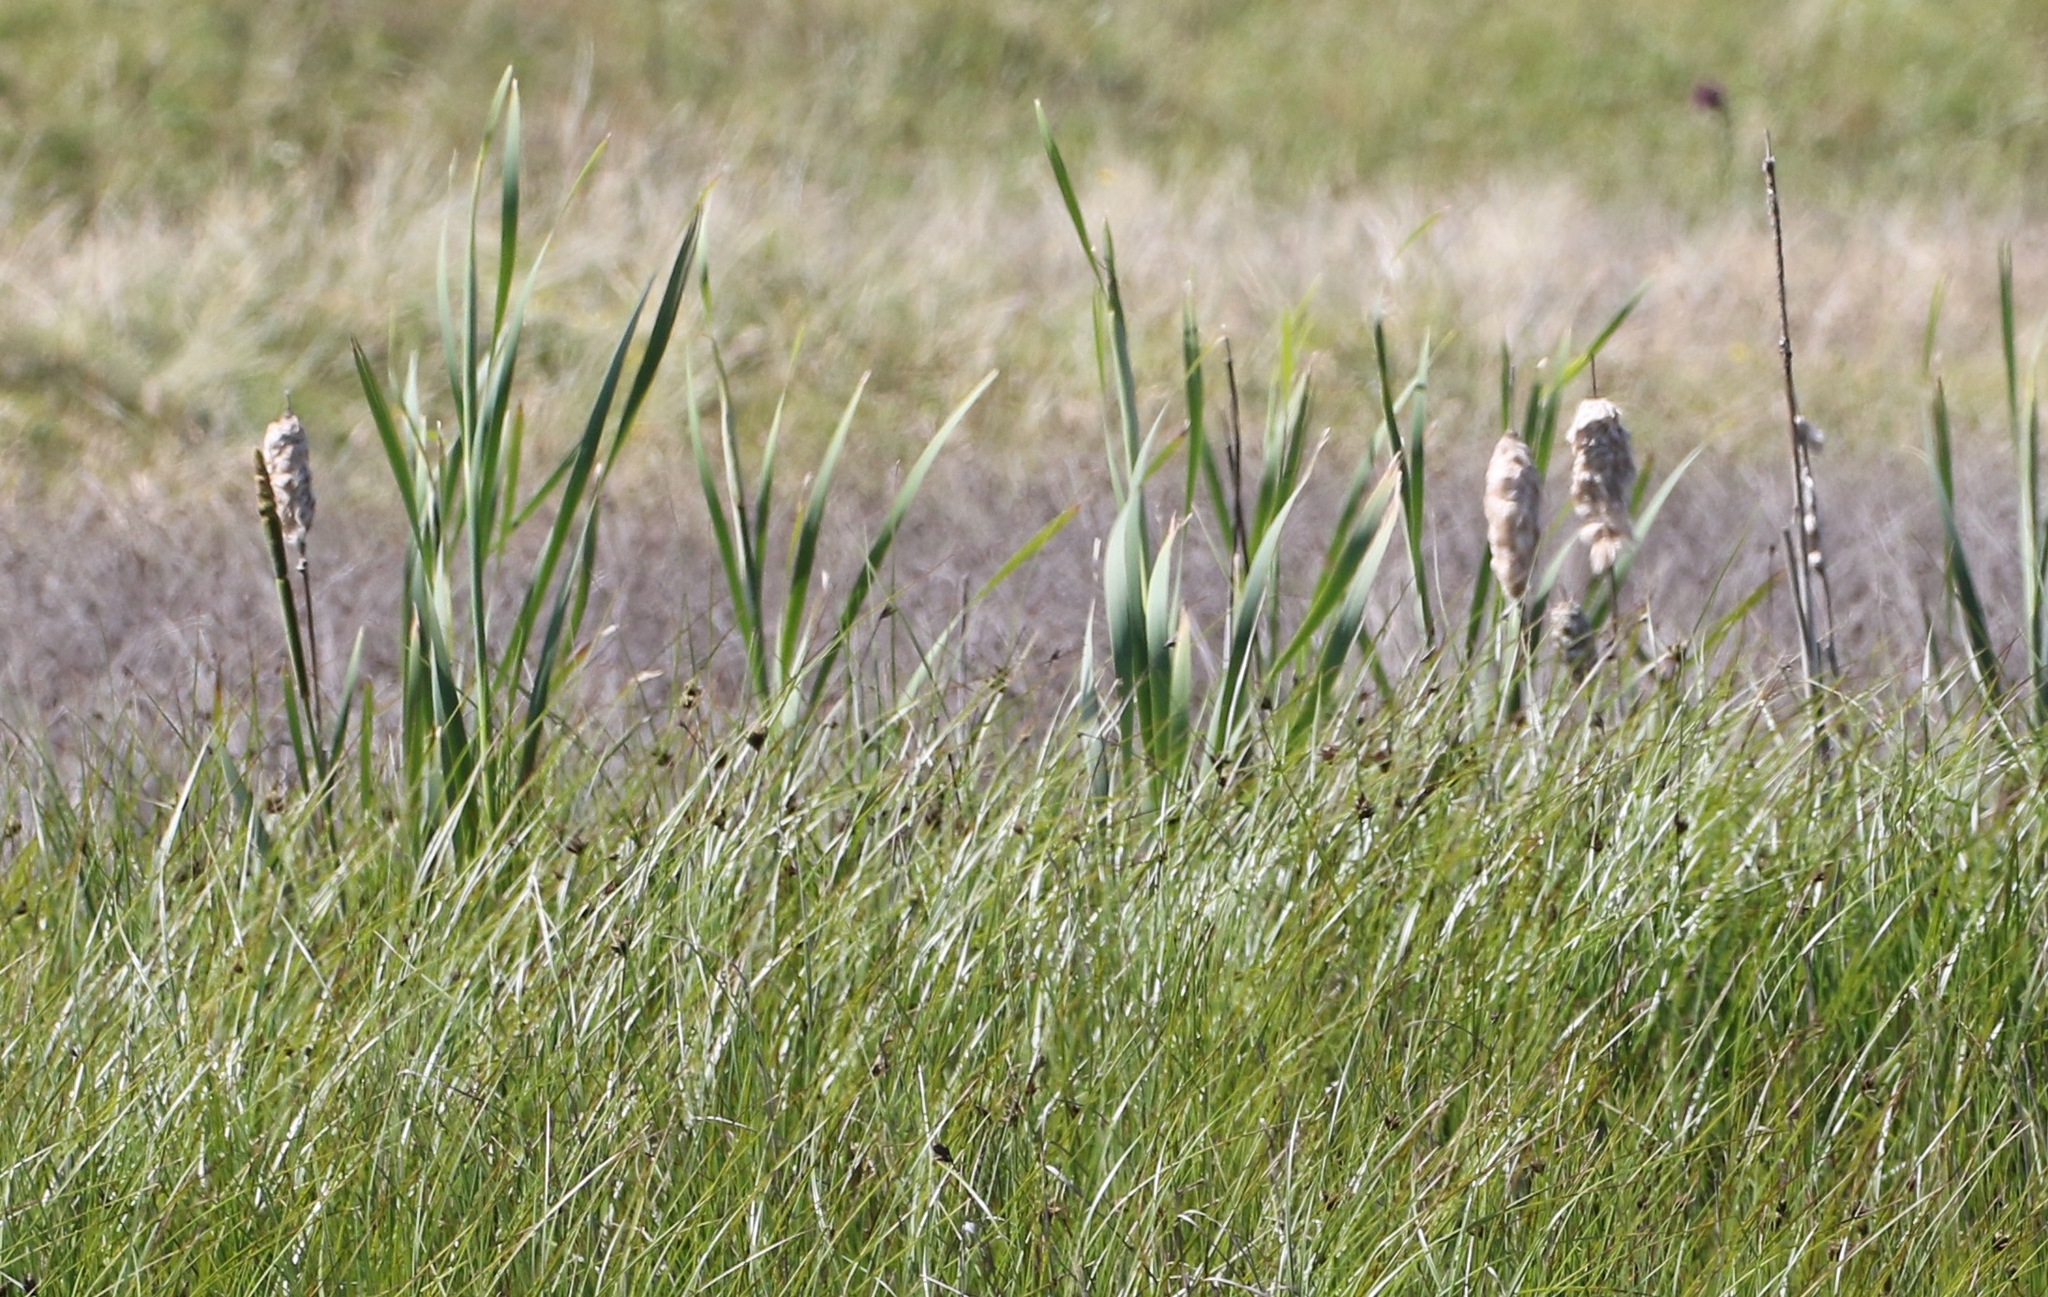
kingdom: Plantae
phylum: Tracheophyta
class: Liliopsida
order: Poales
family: Typhaceae
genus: Typha
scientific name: Typha latifolia
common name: Broadleaf cattail
